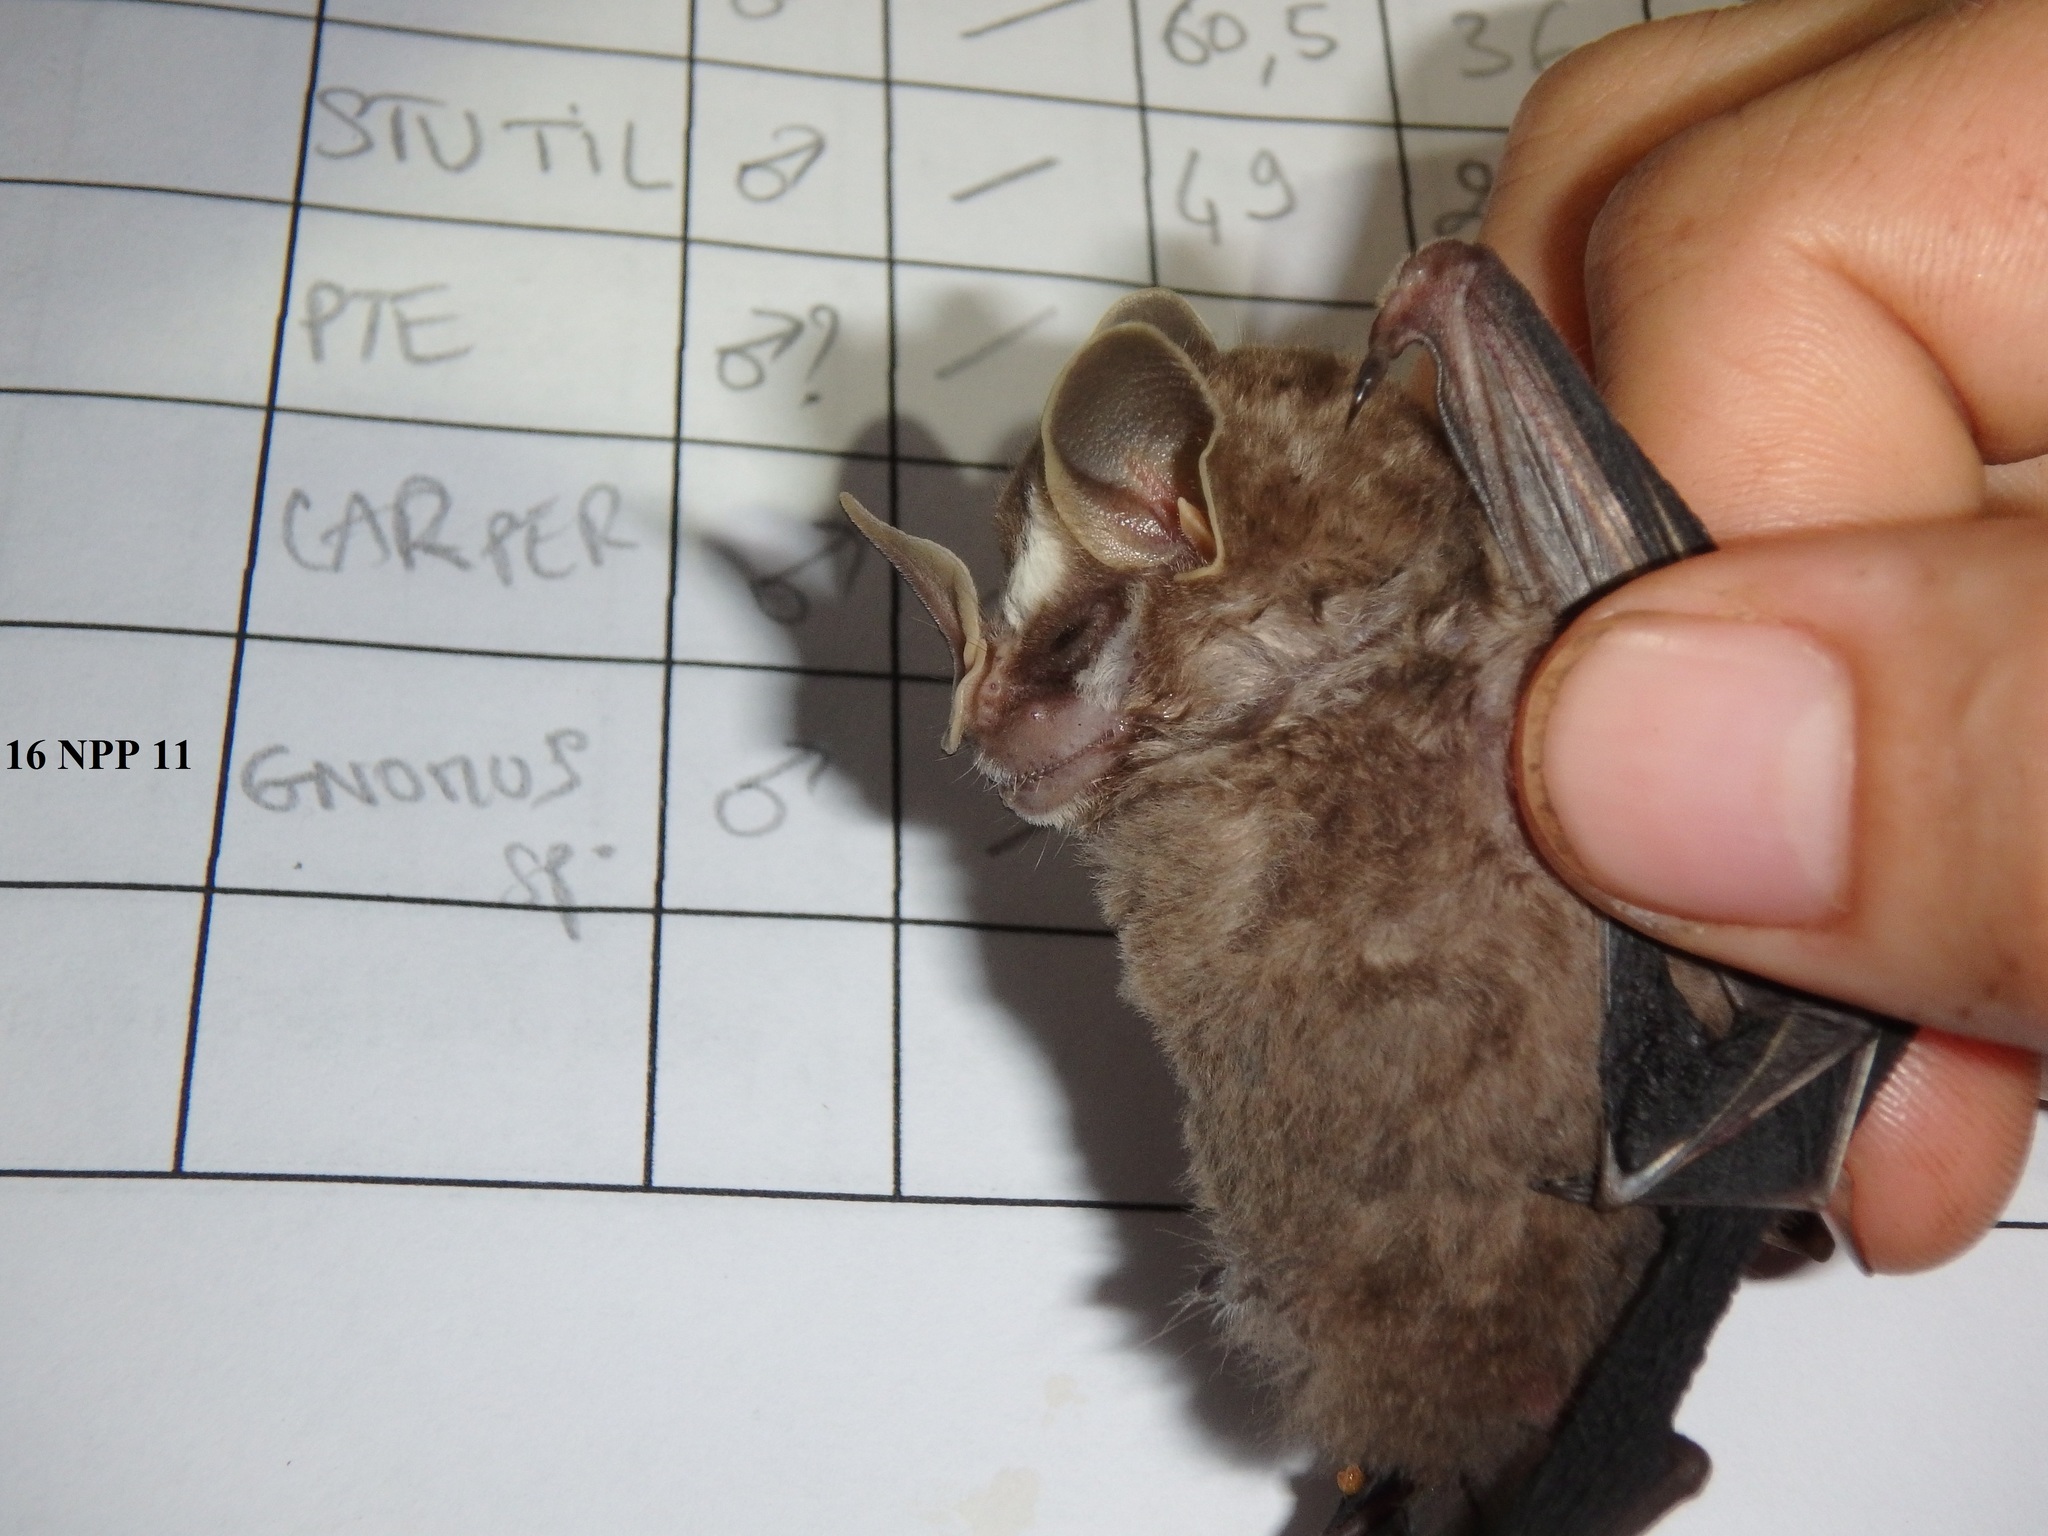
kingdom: Animalia
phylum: Chordata
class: Mammalia
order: Chiroptera
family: Phyllostomidae
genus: Dermanura
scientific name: Dermanura
